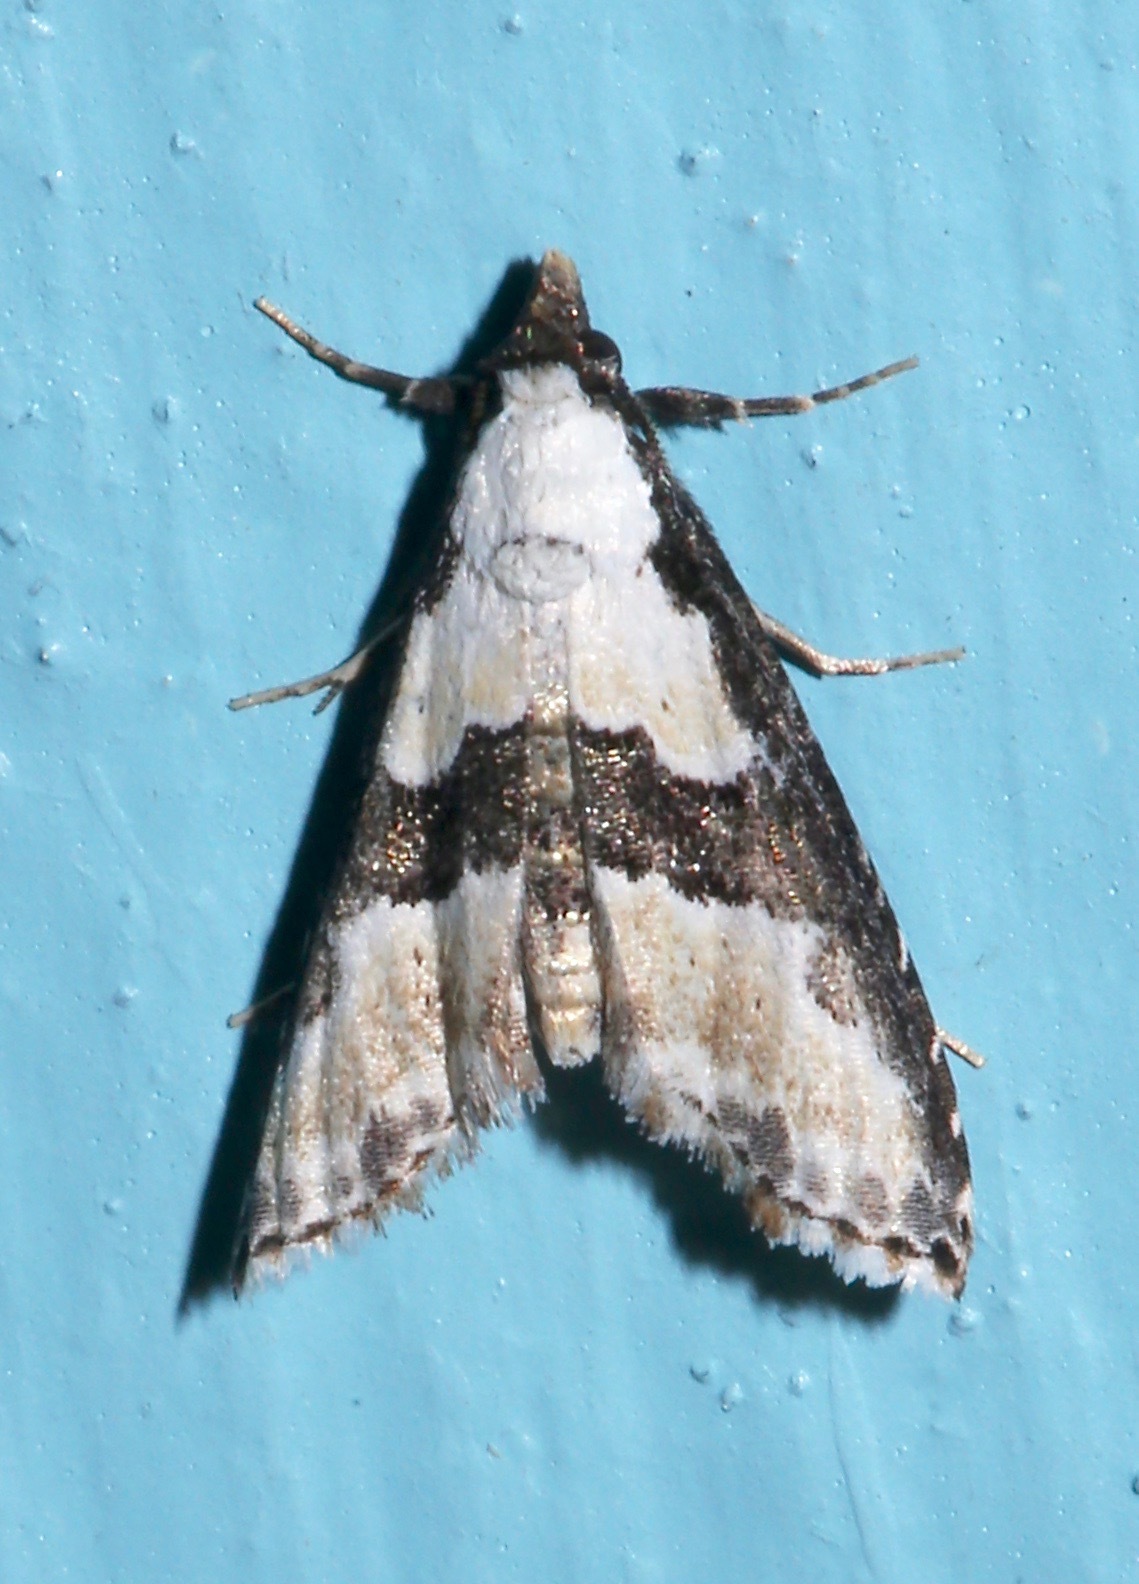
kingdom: Animalia
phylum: Arthropoda
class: Insecta
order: Lepidoptera
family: Noctuidae
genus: Nigetia
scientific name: Nigetia formosalis
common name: Thin-winged owlet
